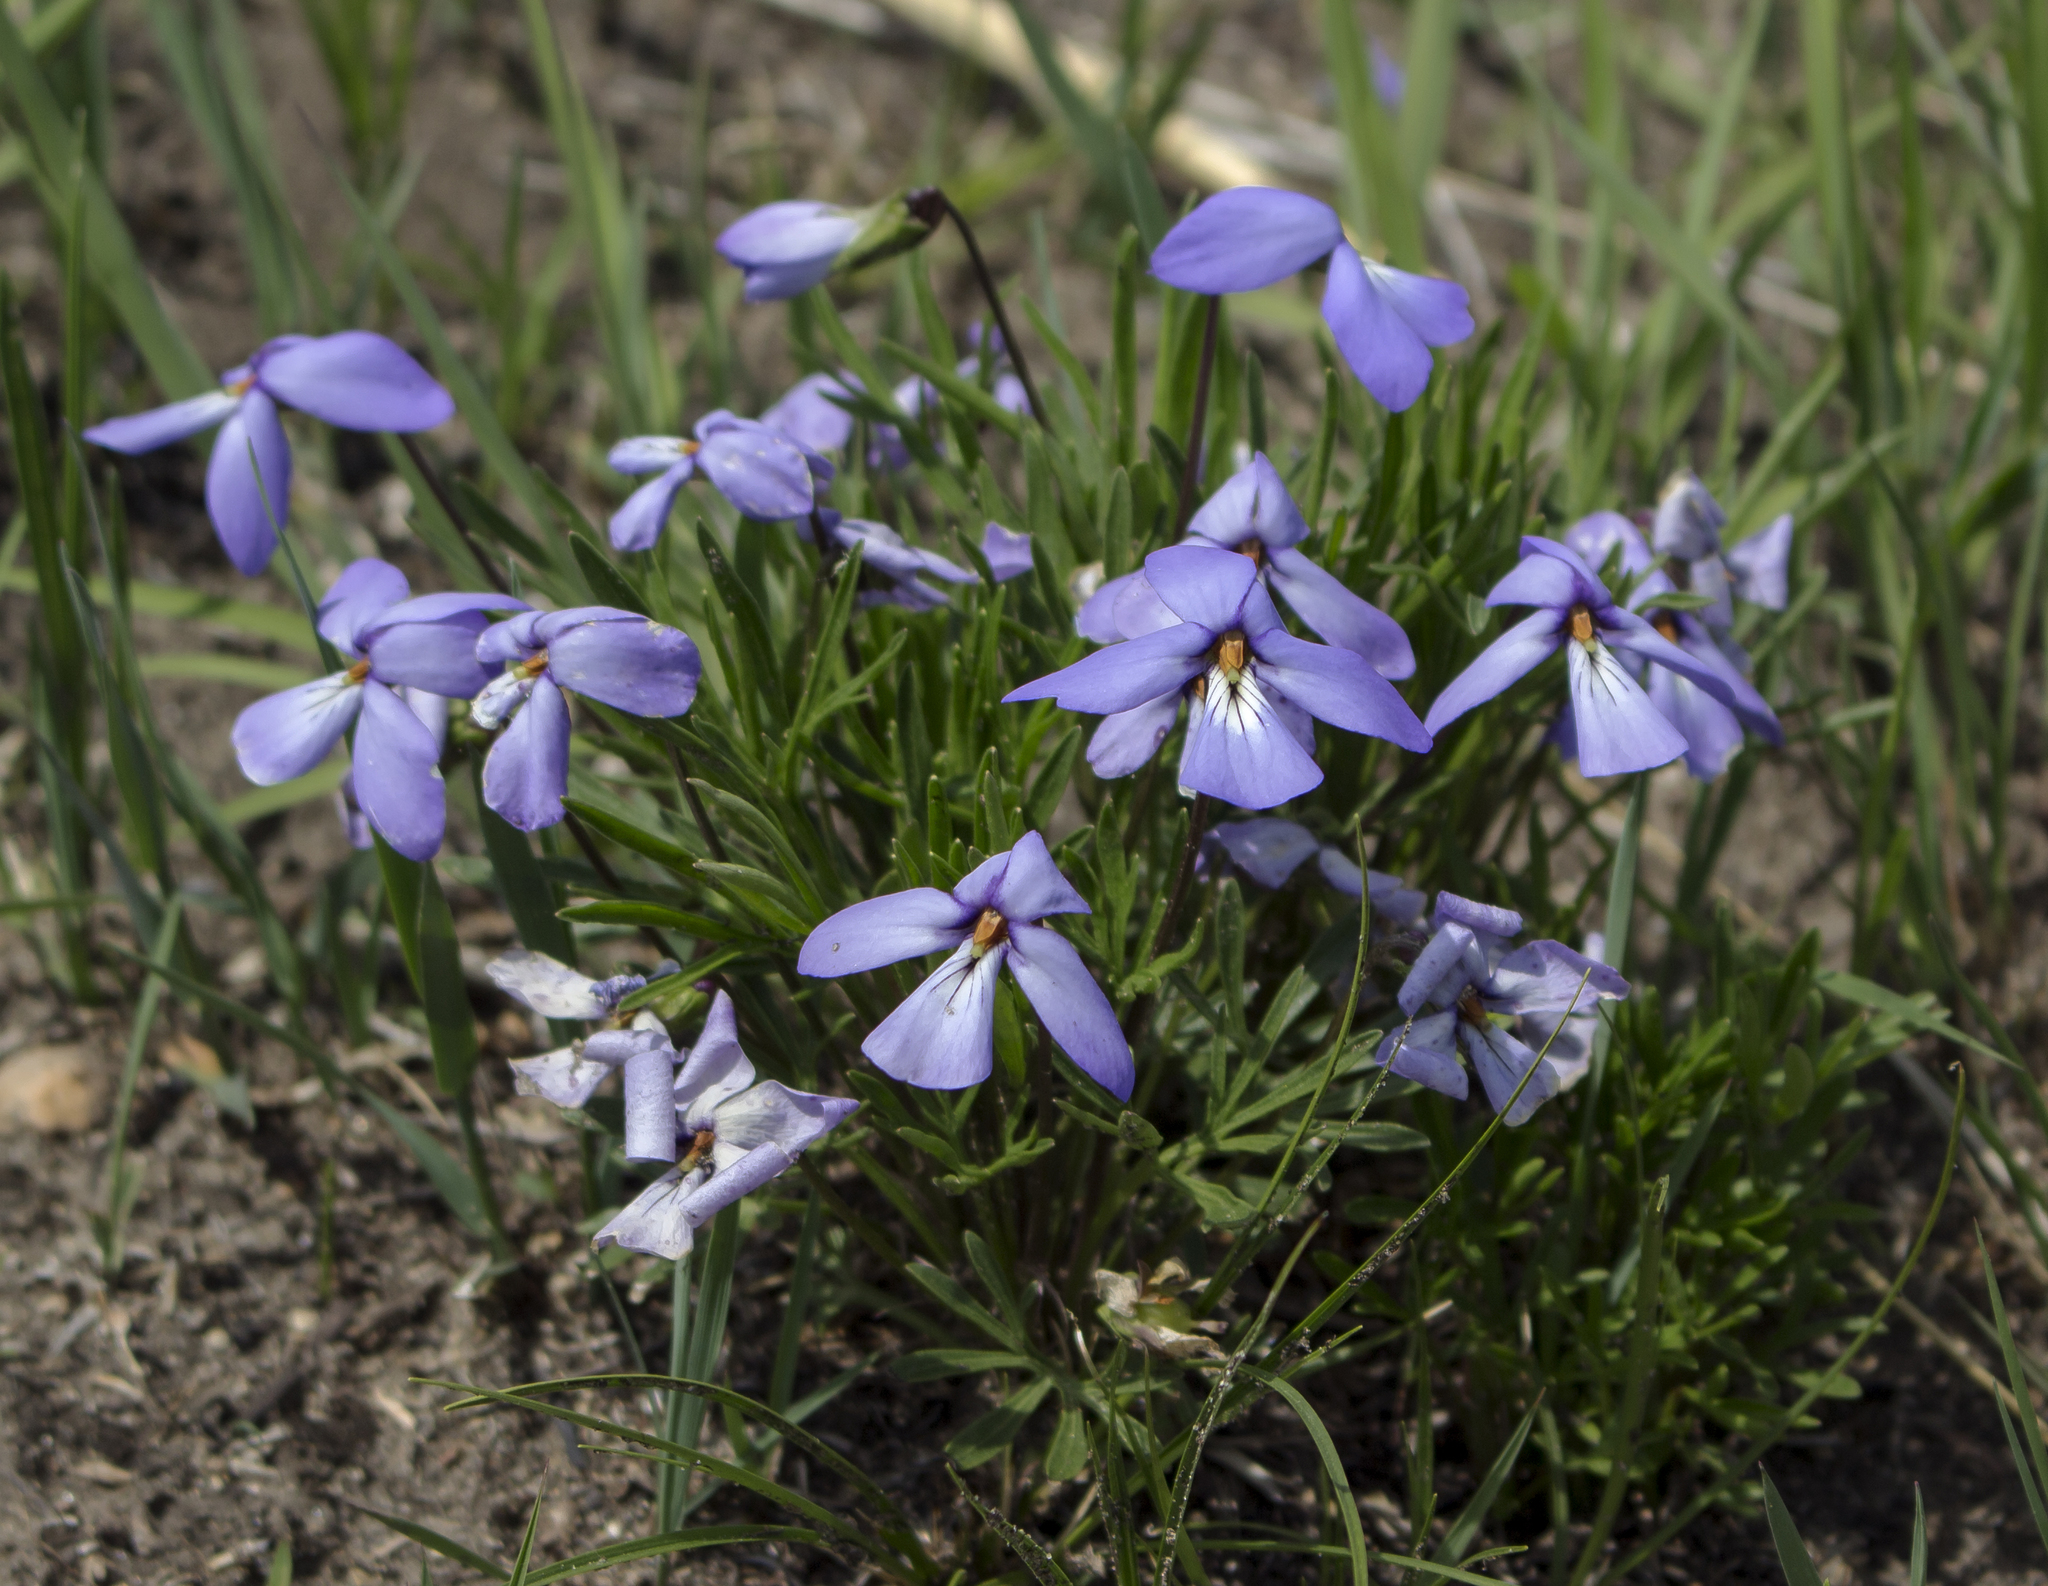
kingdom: Plantae
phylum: Tracheophyta
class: Magnoliopsida
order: Malpighiales
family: Violaceae
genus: Viola
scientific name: Viola pedata
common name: Pansy violet
